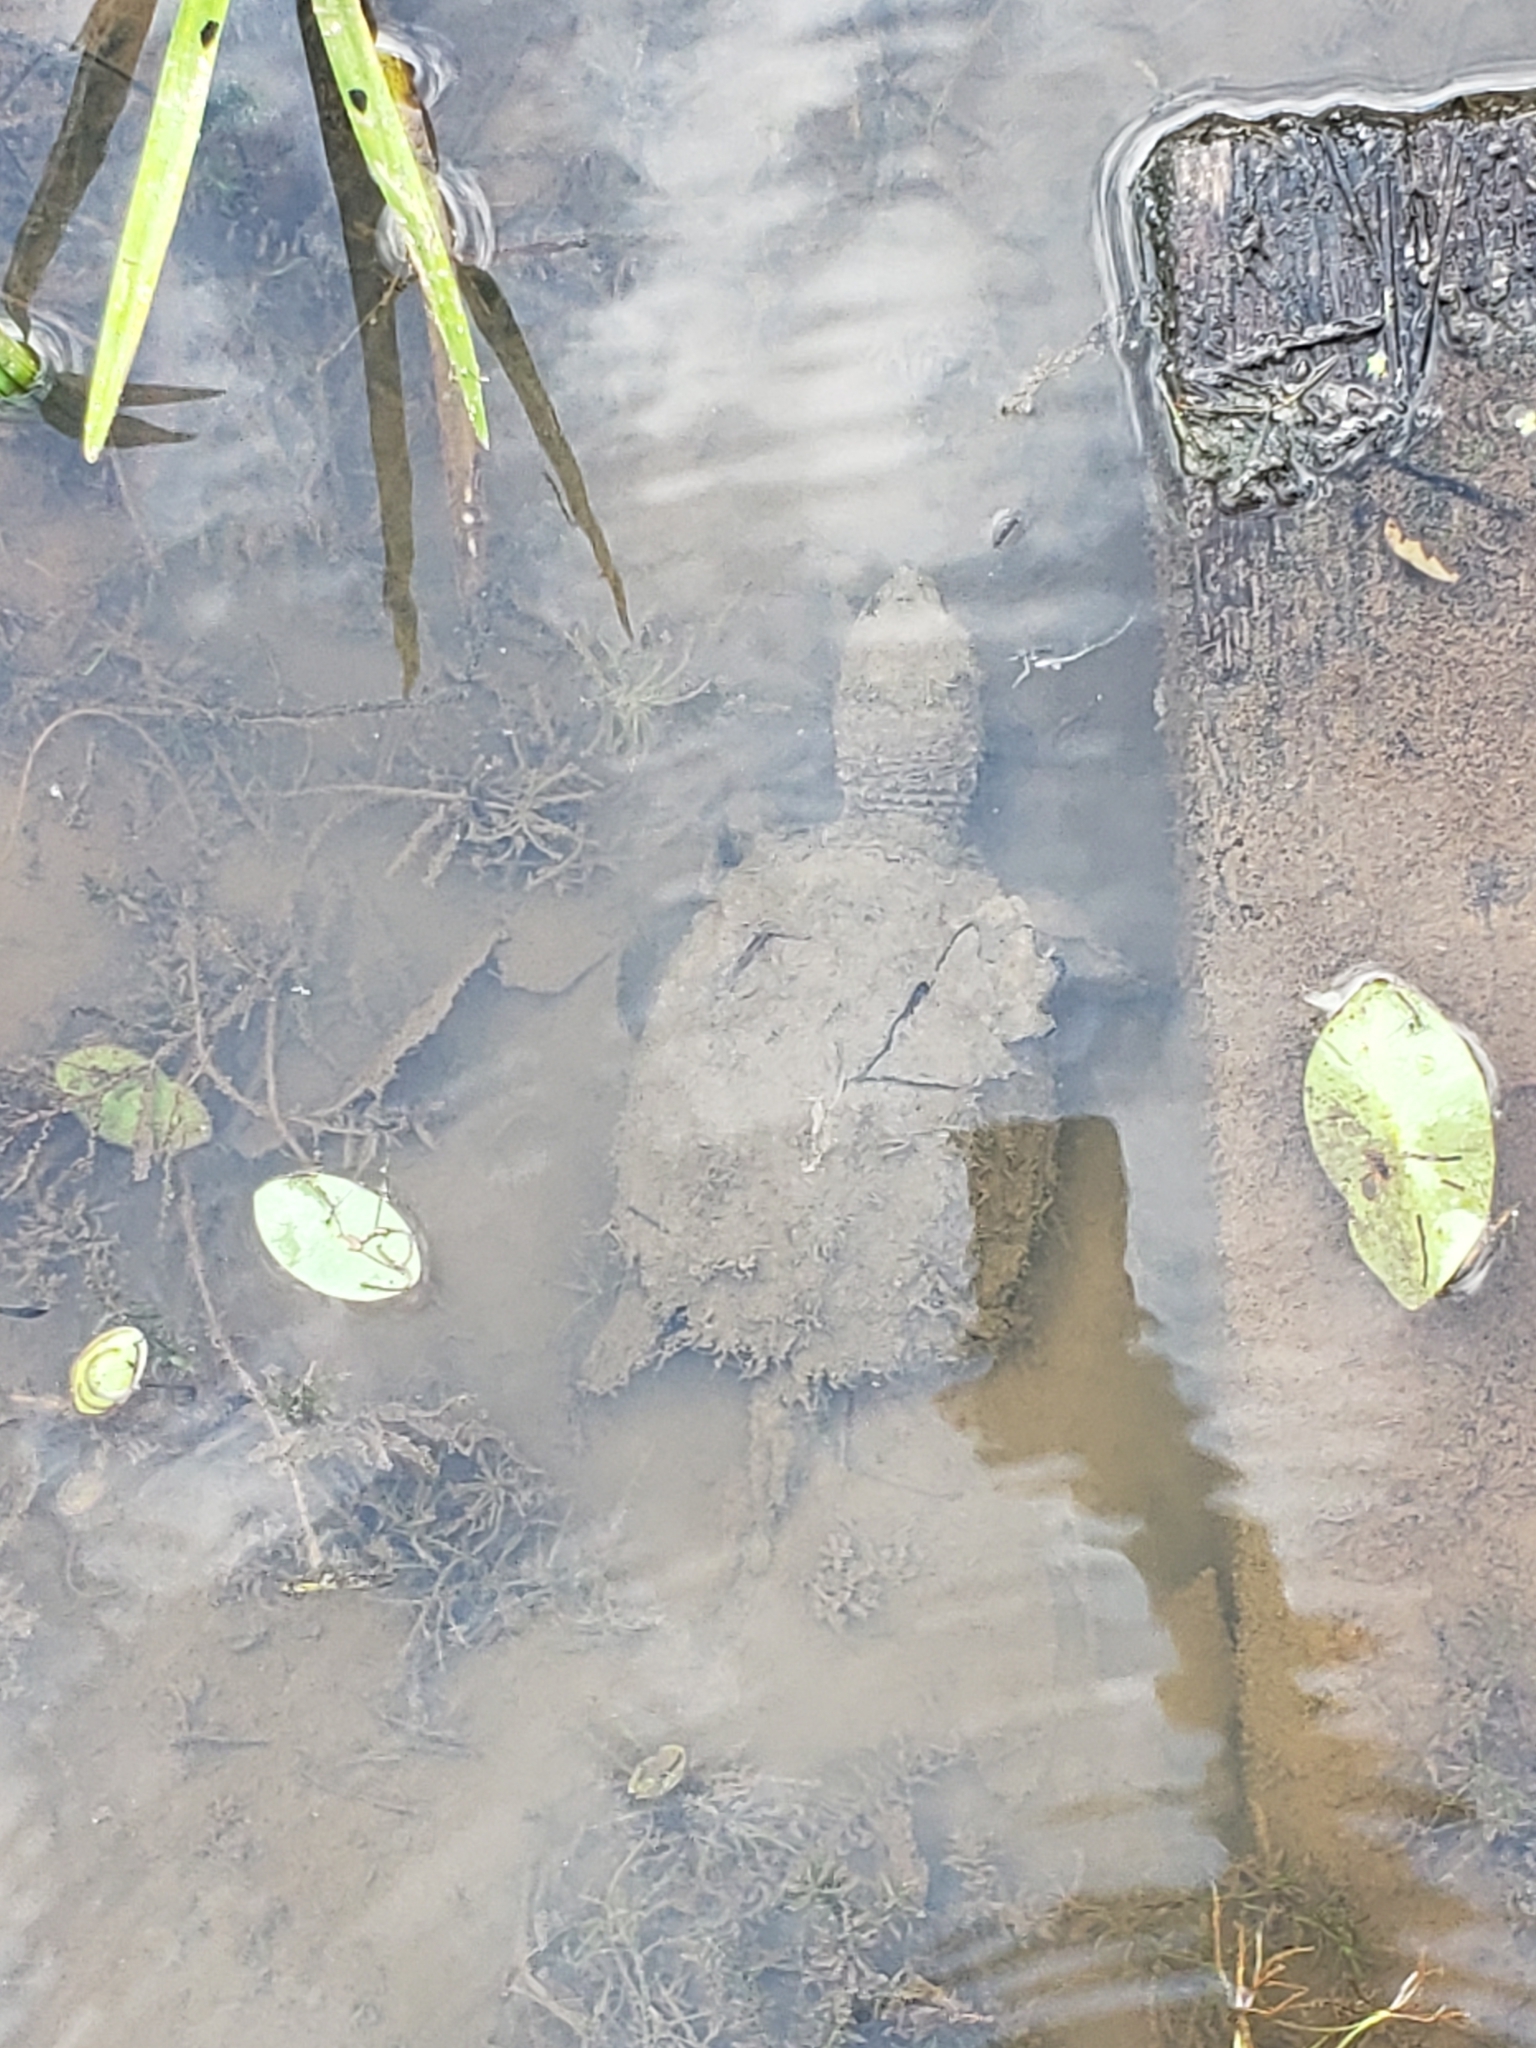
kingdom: Animalia
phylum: Chordata
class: Testudines
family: Chelydridae
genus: Chelydra
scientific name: Chelydra serpentina
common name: Common snapping turtle
